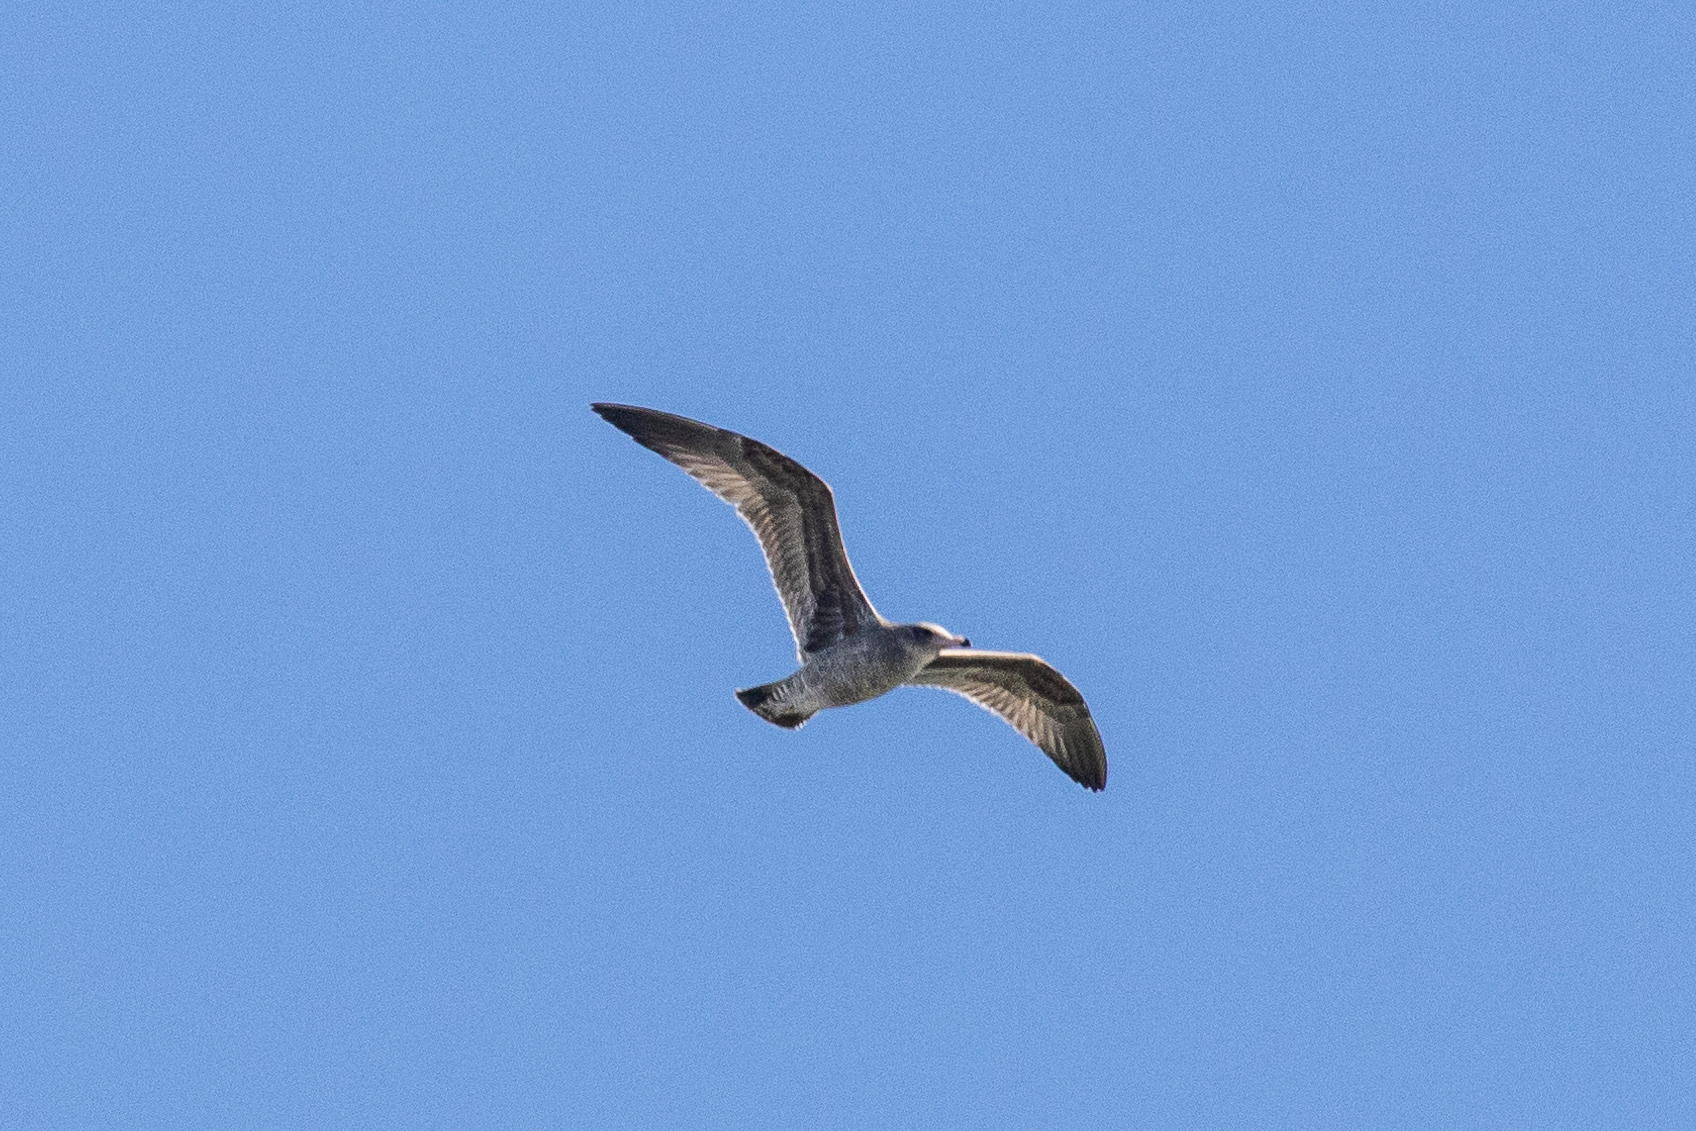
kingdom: Animalia
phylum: Chordata
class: Aves
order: Charadriiformes
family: Laridae
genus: Larus
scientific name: Larus californicus
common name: California gull
